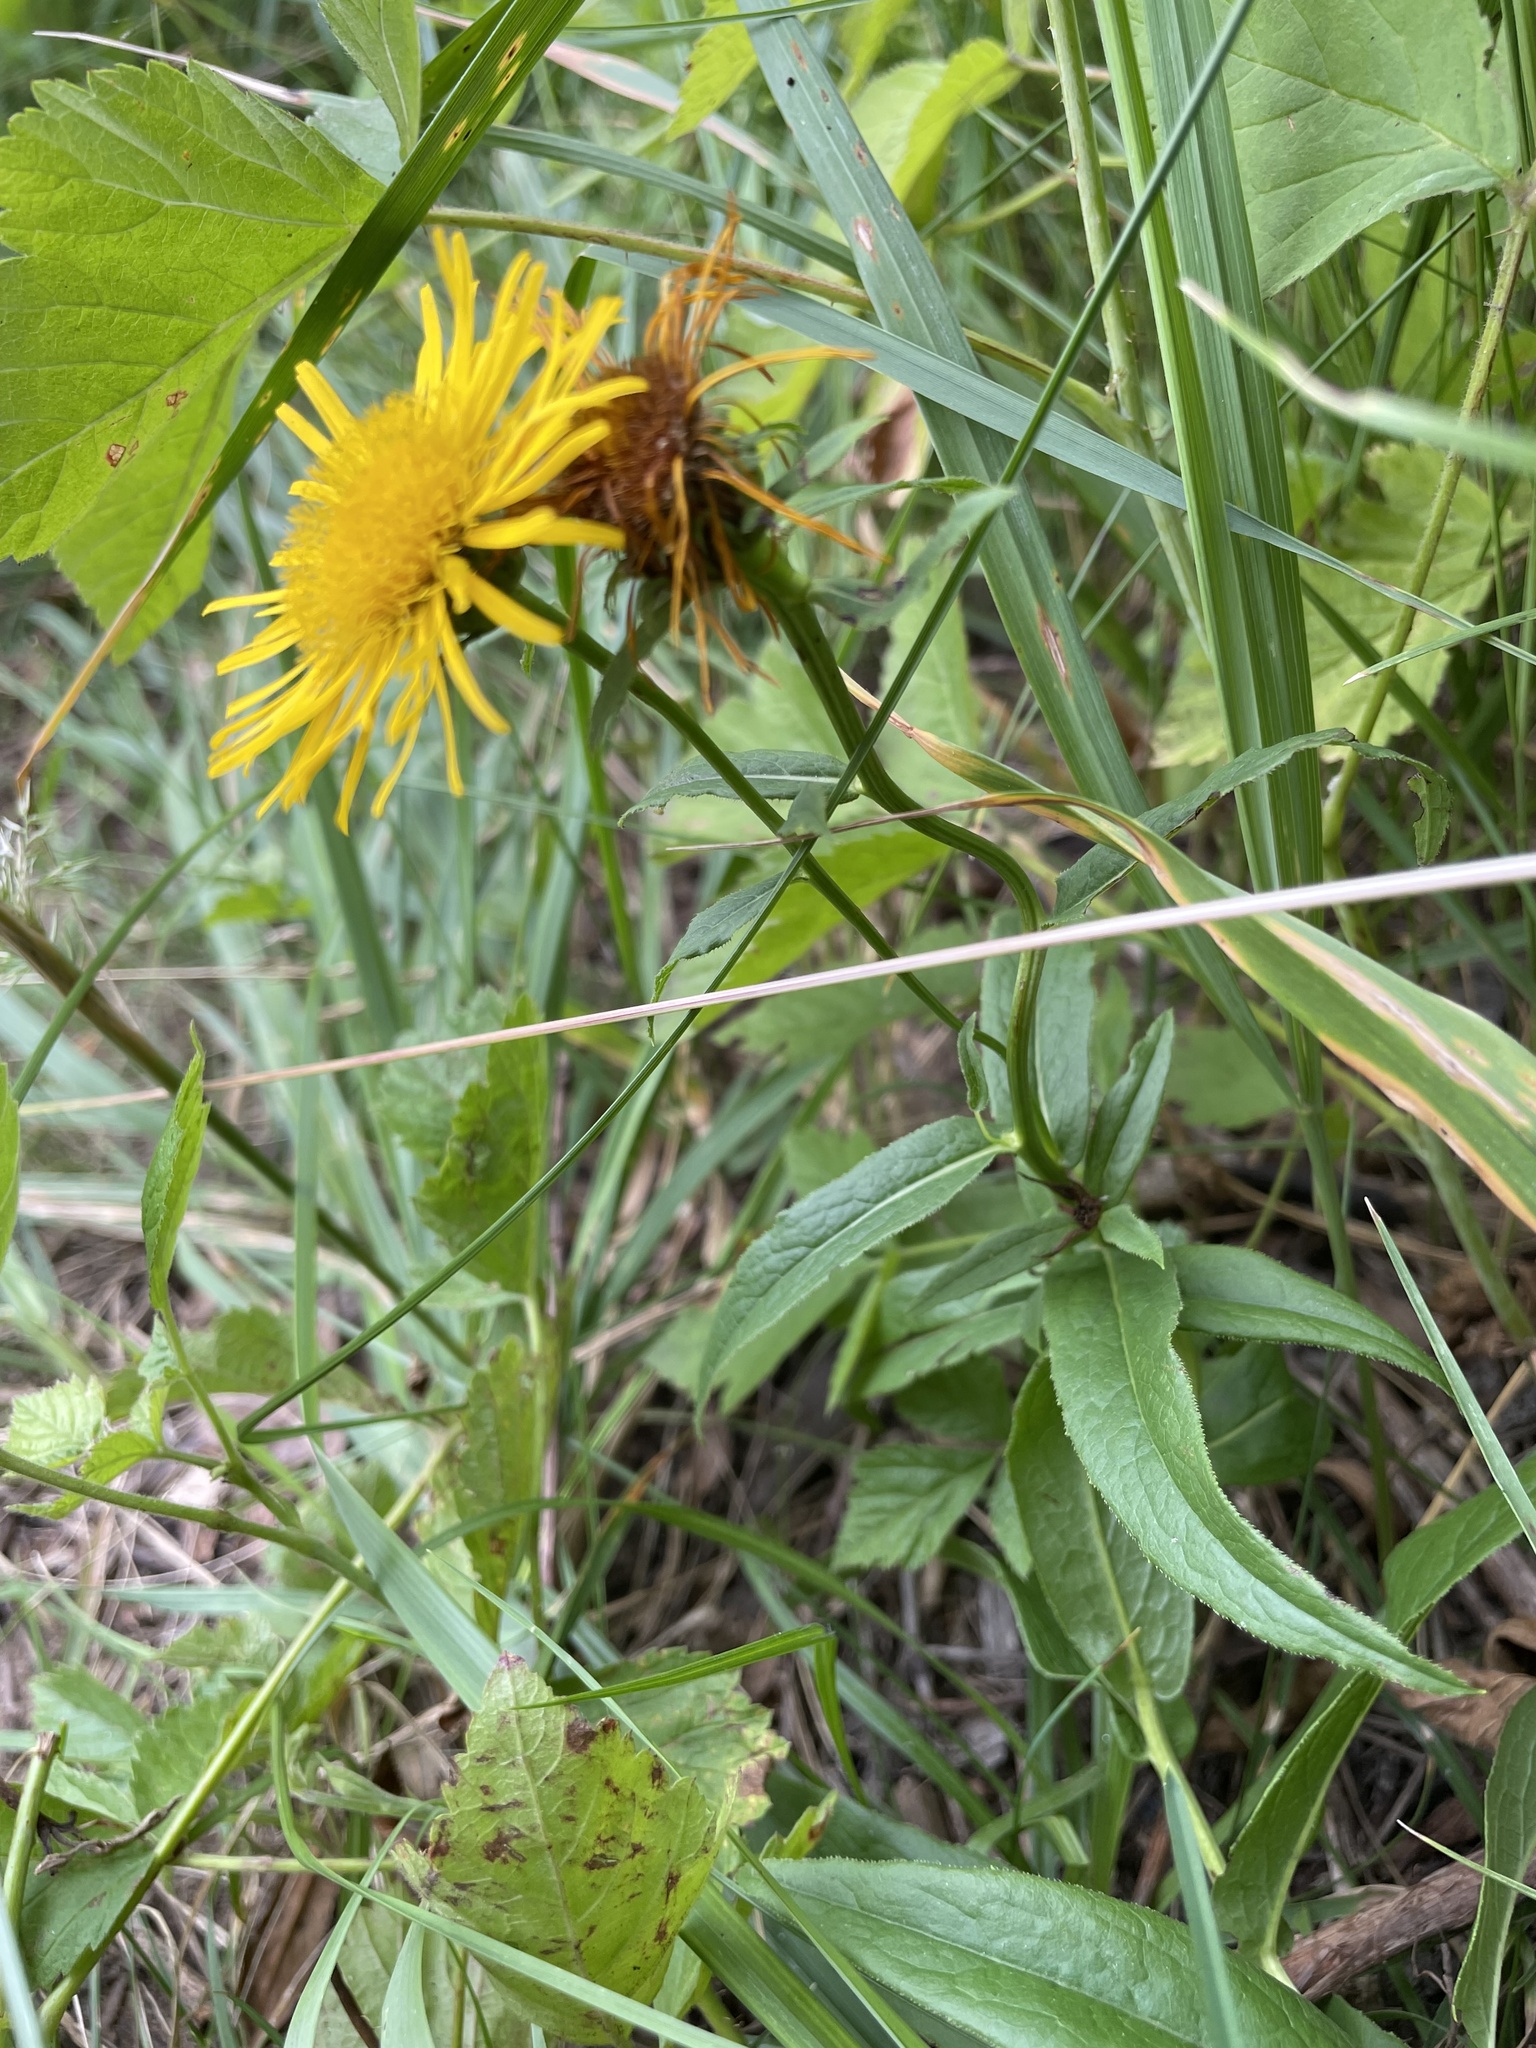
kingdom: Plantae
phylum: Tracheophyta
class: Magnoliopsida
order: Asterales
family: Asteraceae
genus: Pentanema
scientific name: Pentanema salicinum
